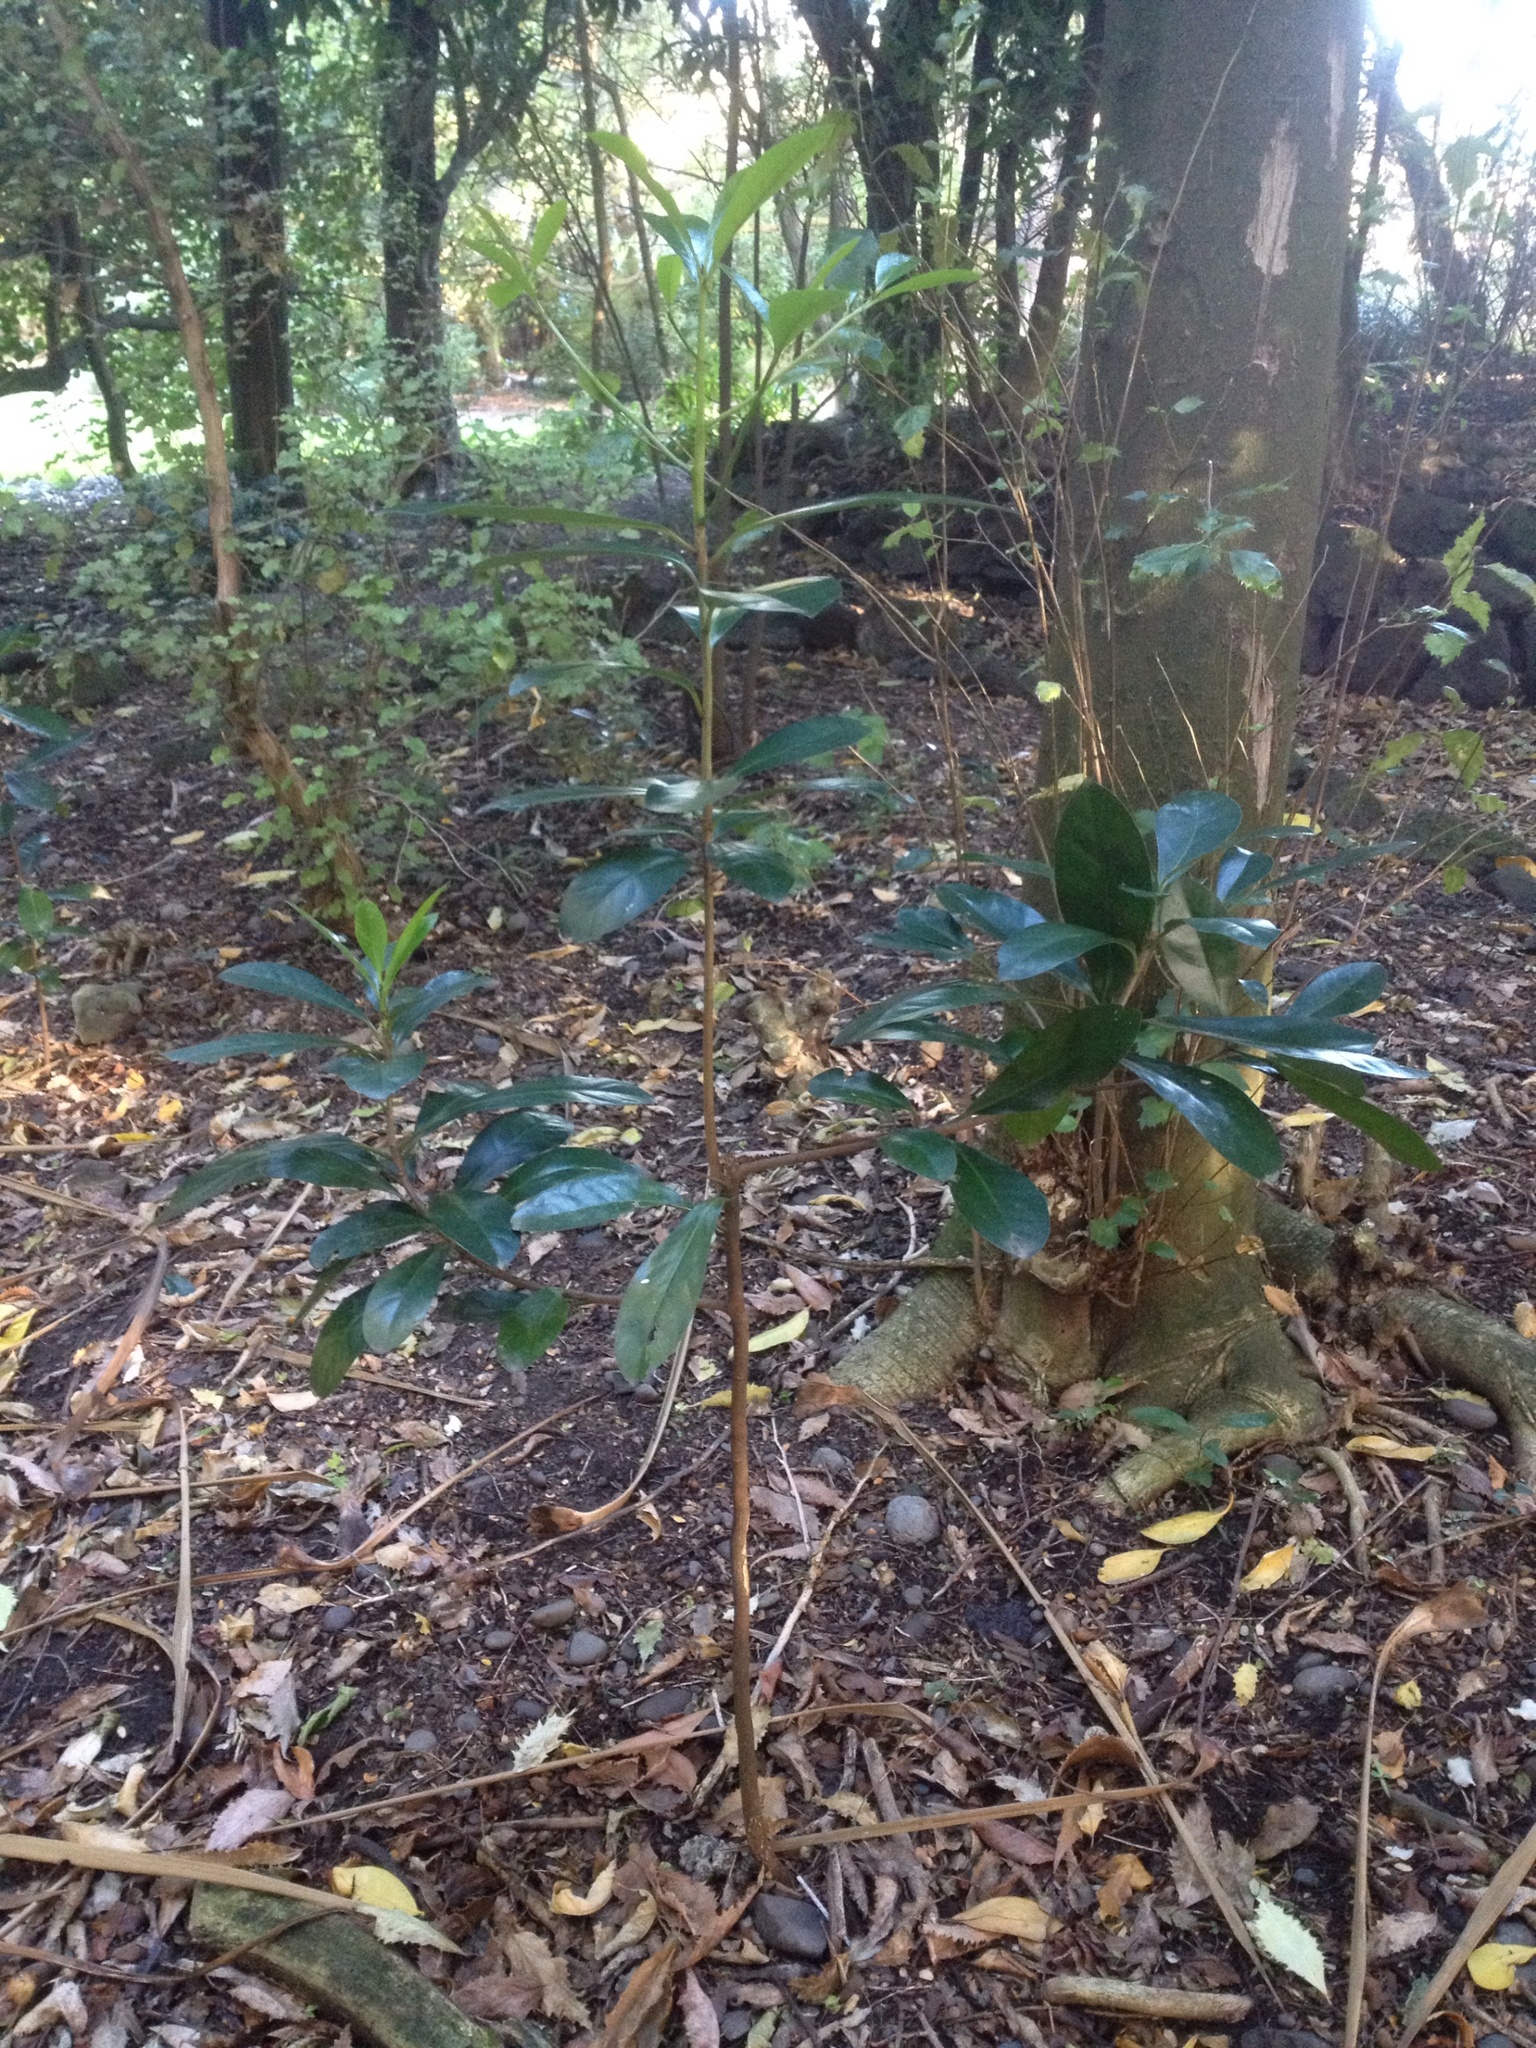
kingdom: Plantae
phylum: Tracheophyta
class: Magnoliopsida
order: Cucurbitales
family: Corynocarpaceae
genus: Corynocarpus
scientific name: Corynocarpus laevigatus
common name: New zealand laurel
